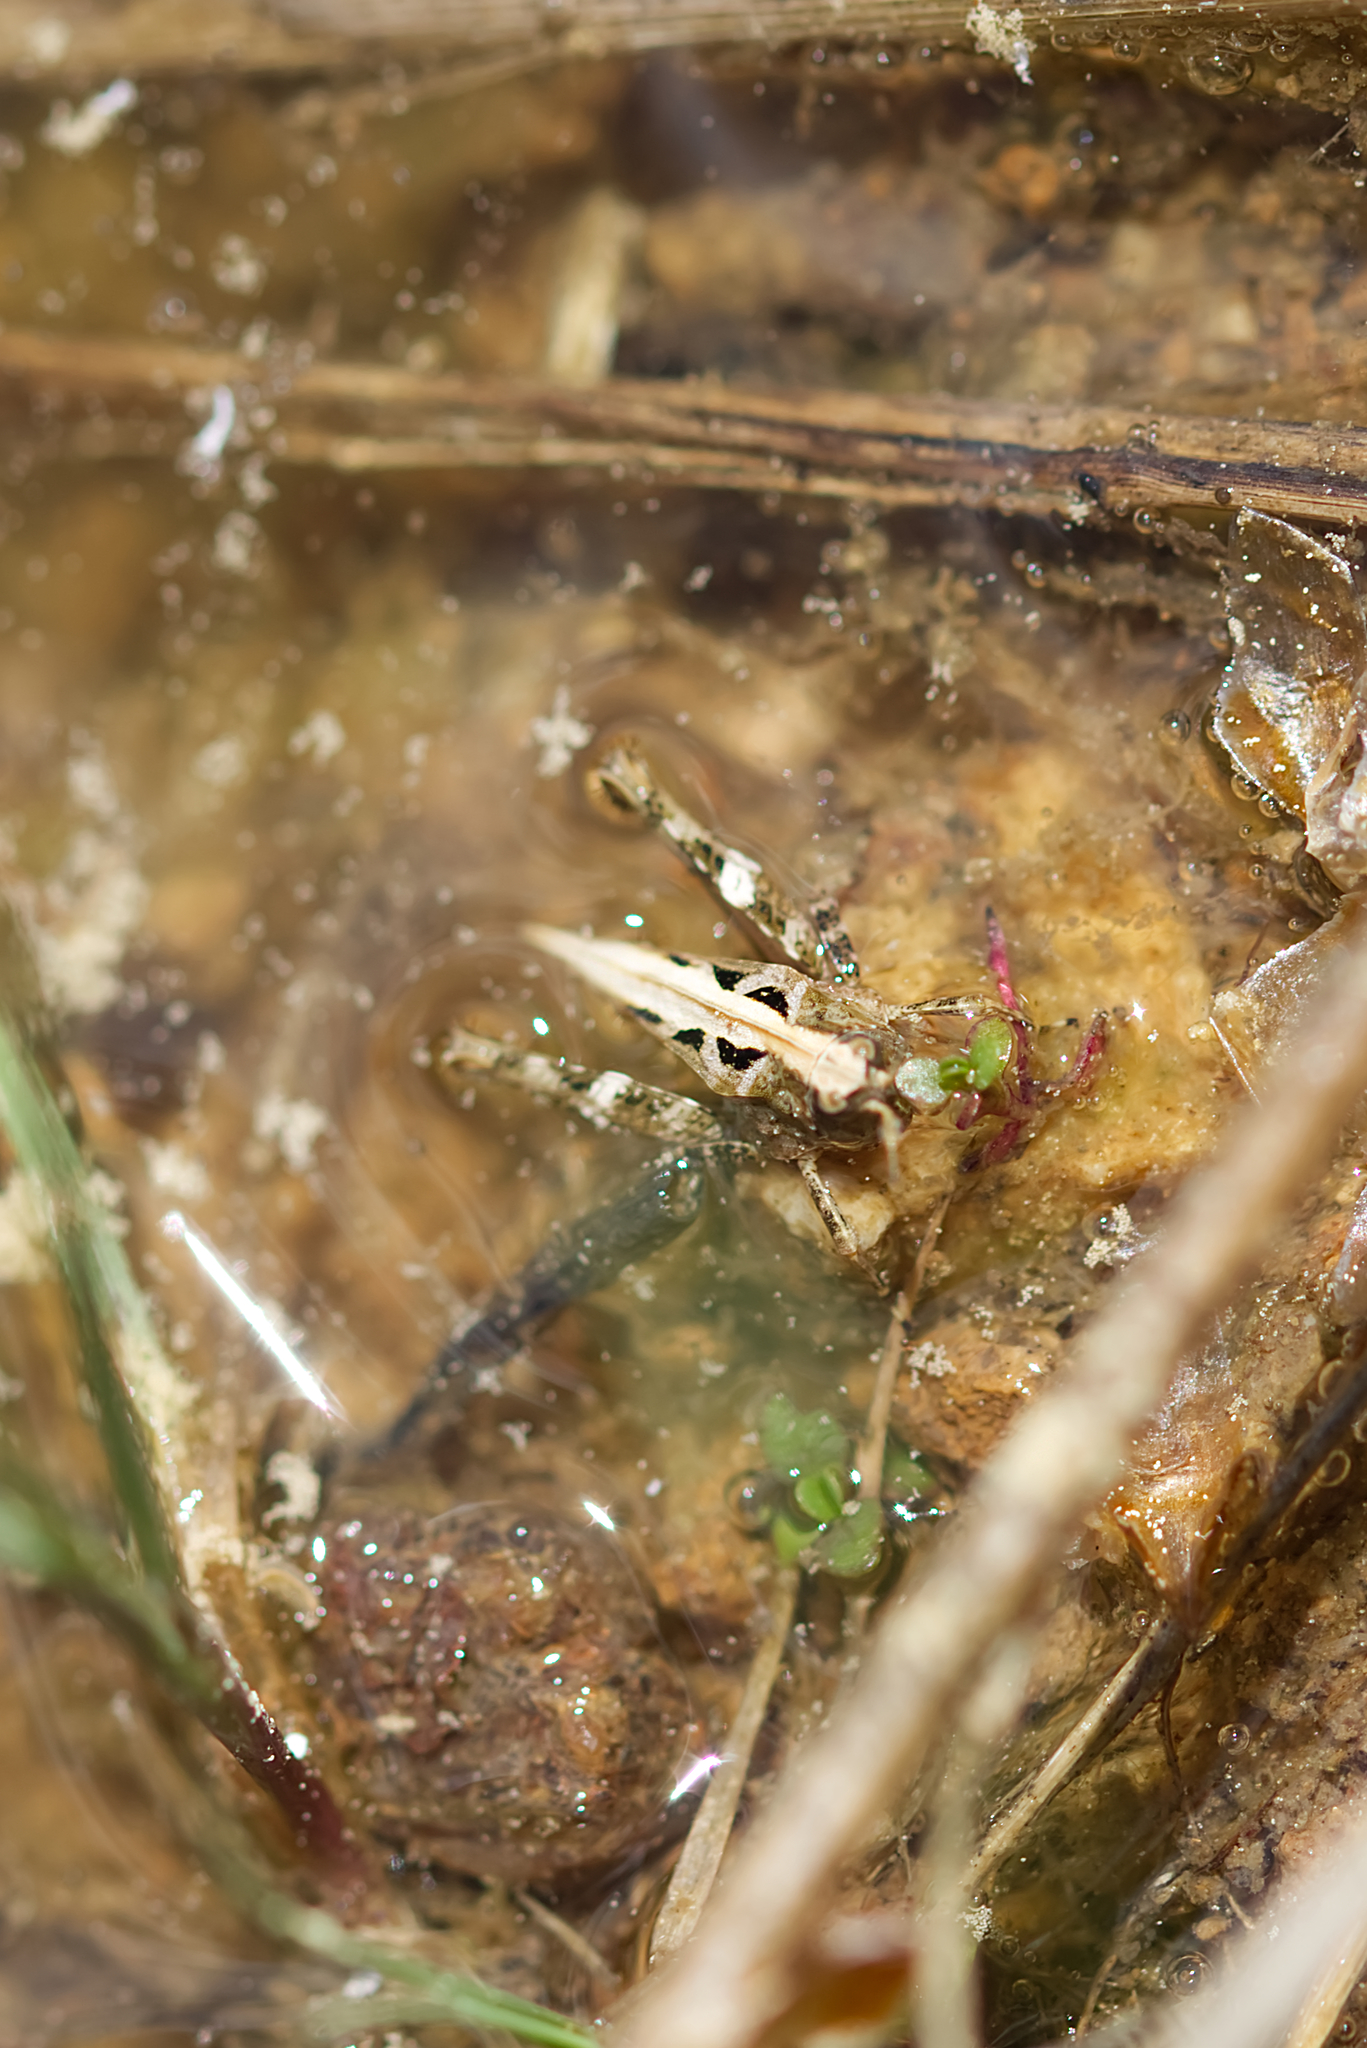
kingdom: Animalia
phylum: Arthropoda
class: Insecta
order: Orthoptera
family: Tetrigidae
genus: Tetrix
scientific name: Tetrix undulata
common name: Common groundhopper
